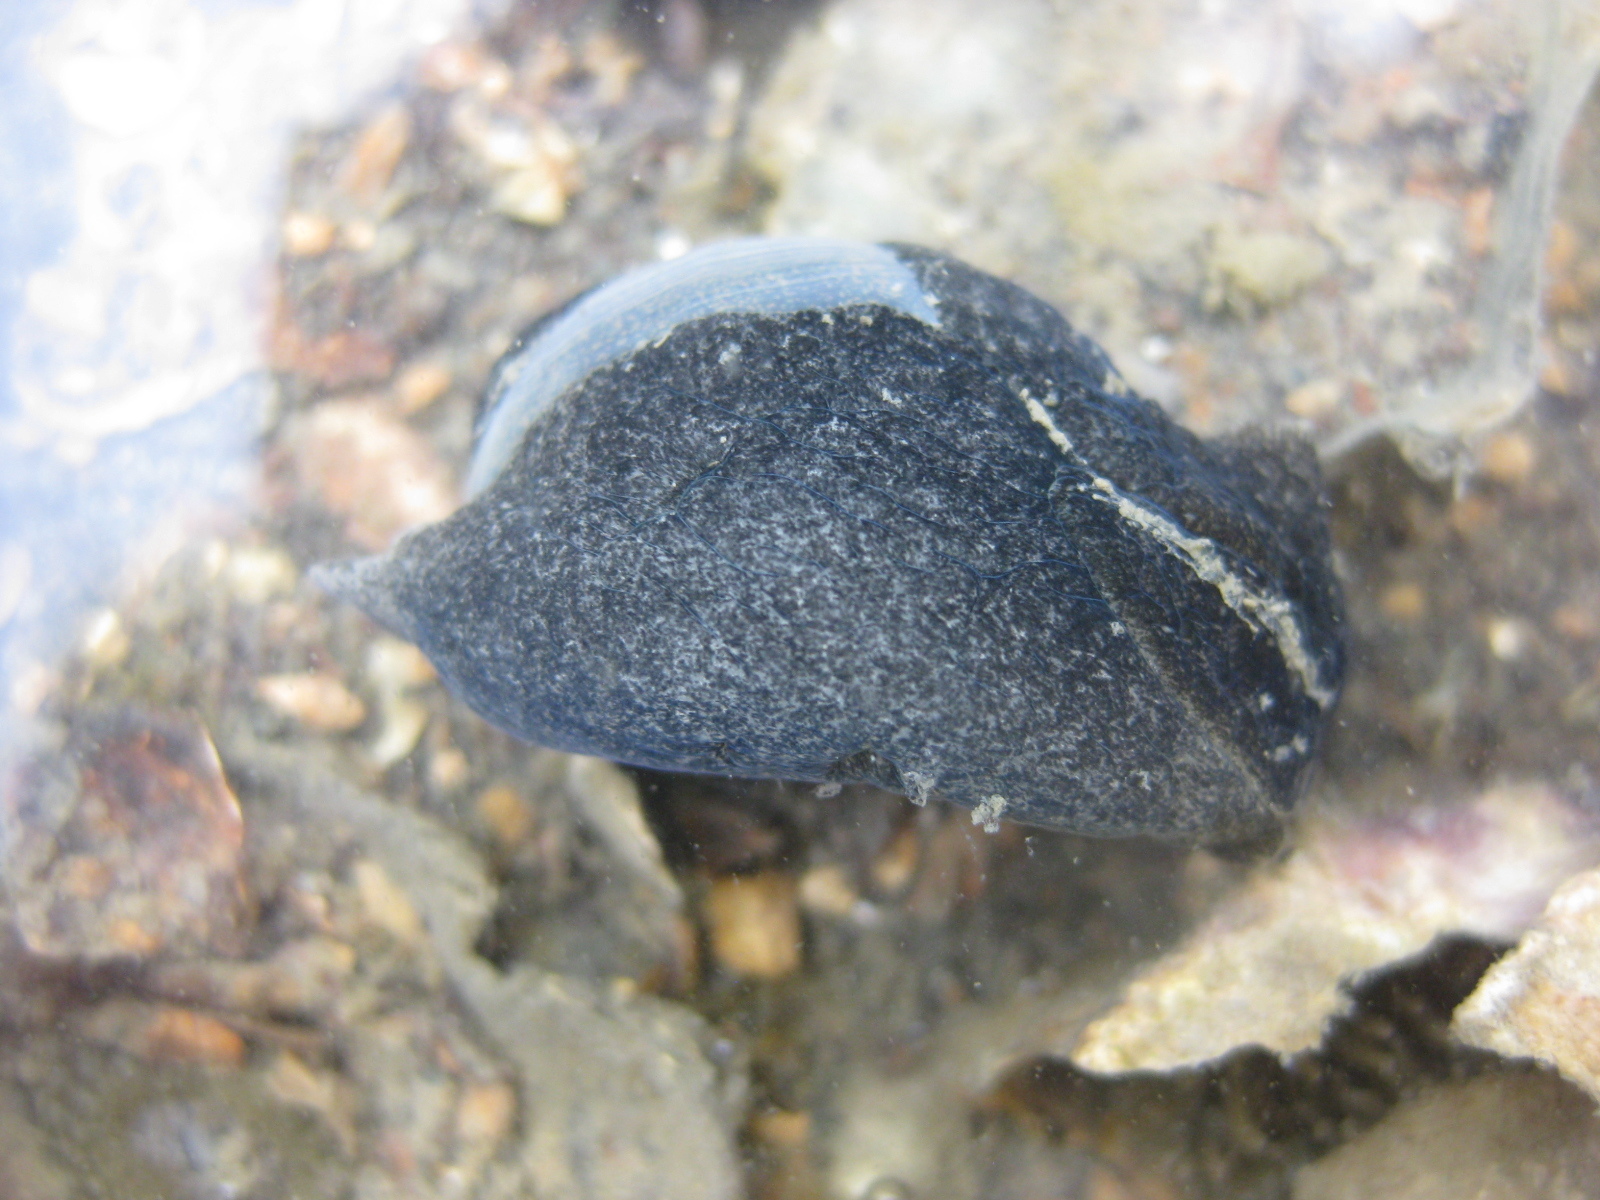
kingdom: Animalia
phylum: Mollusca
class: Gastropoda
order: Cephalaspidea
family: Haminoeidae
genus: Papawera
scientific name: Papawera zelandiae
